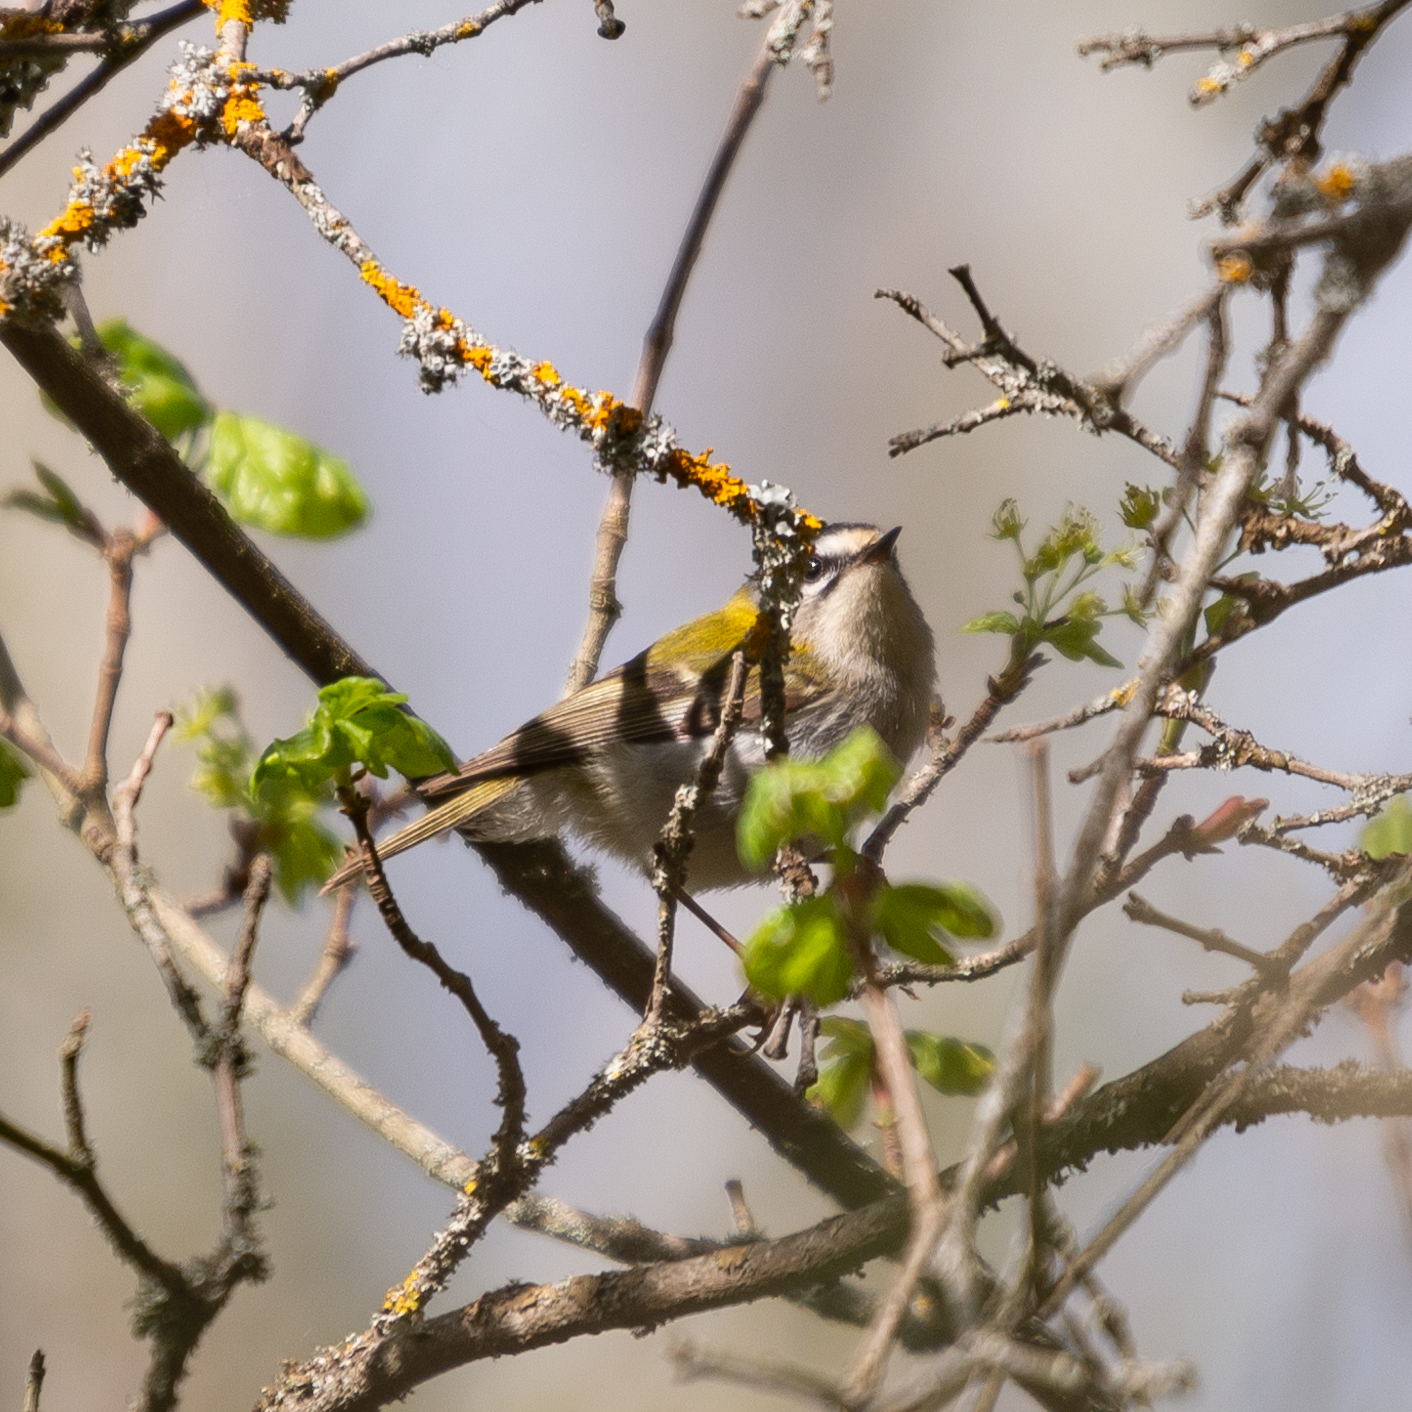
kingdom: Animalia
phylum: Chordata
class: Aves
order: Passeriformes
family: Regulidae
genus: Regulus
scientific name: Regulus ignicapilla
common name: Firecrest
